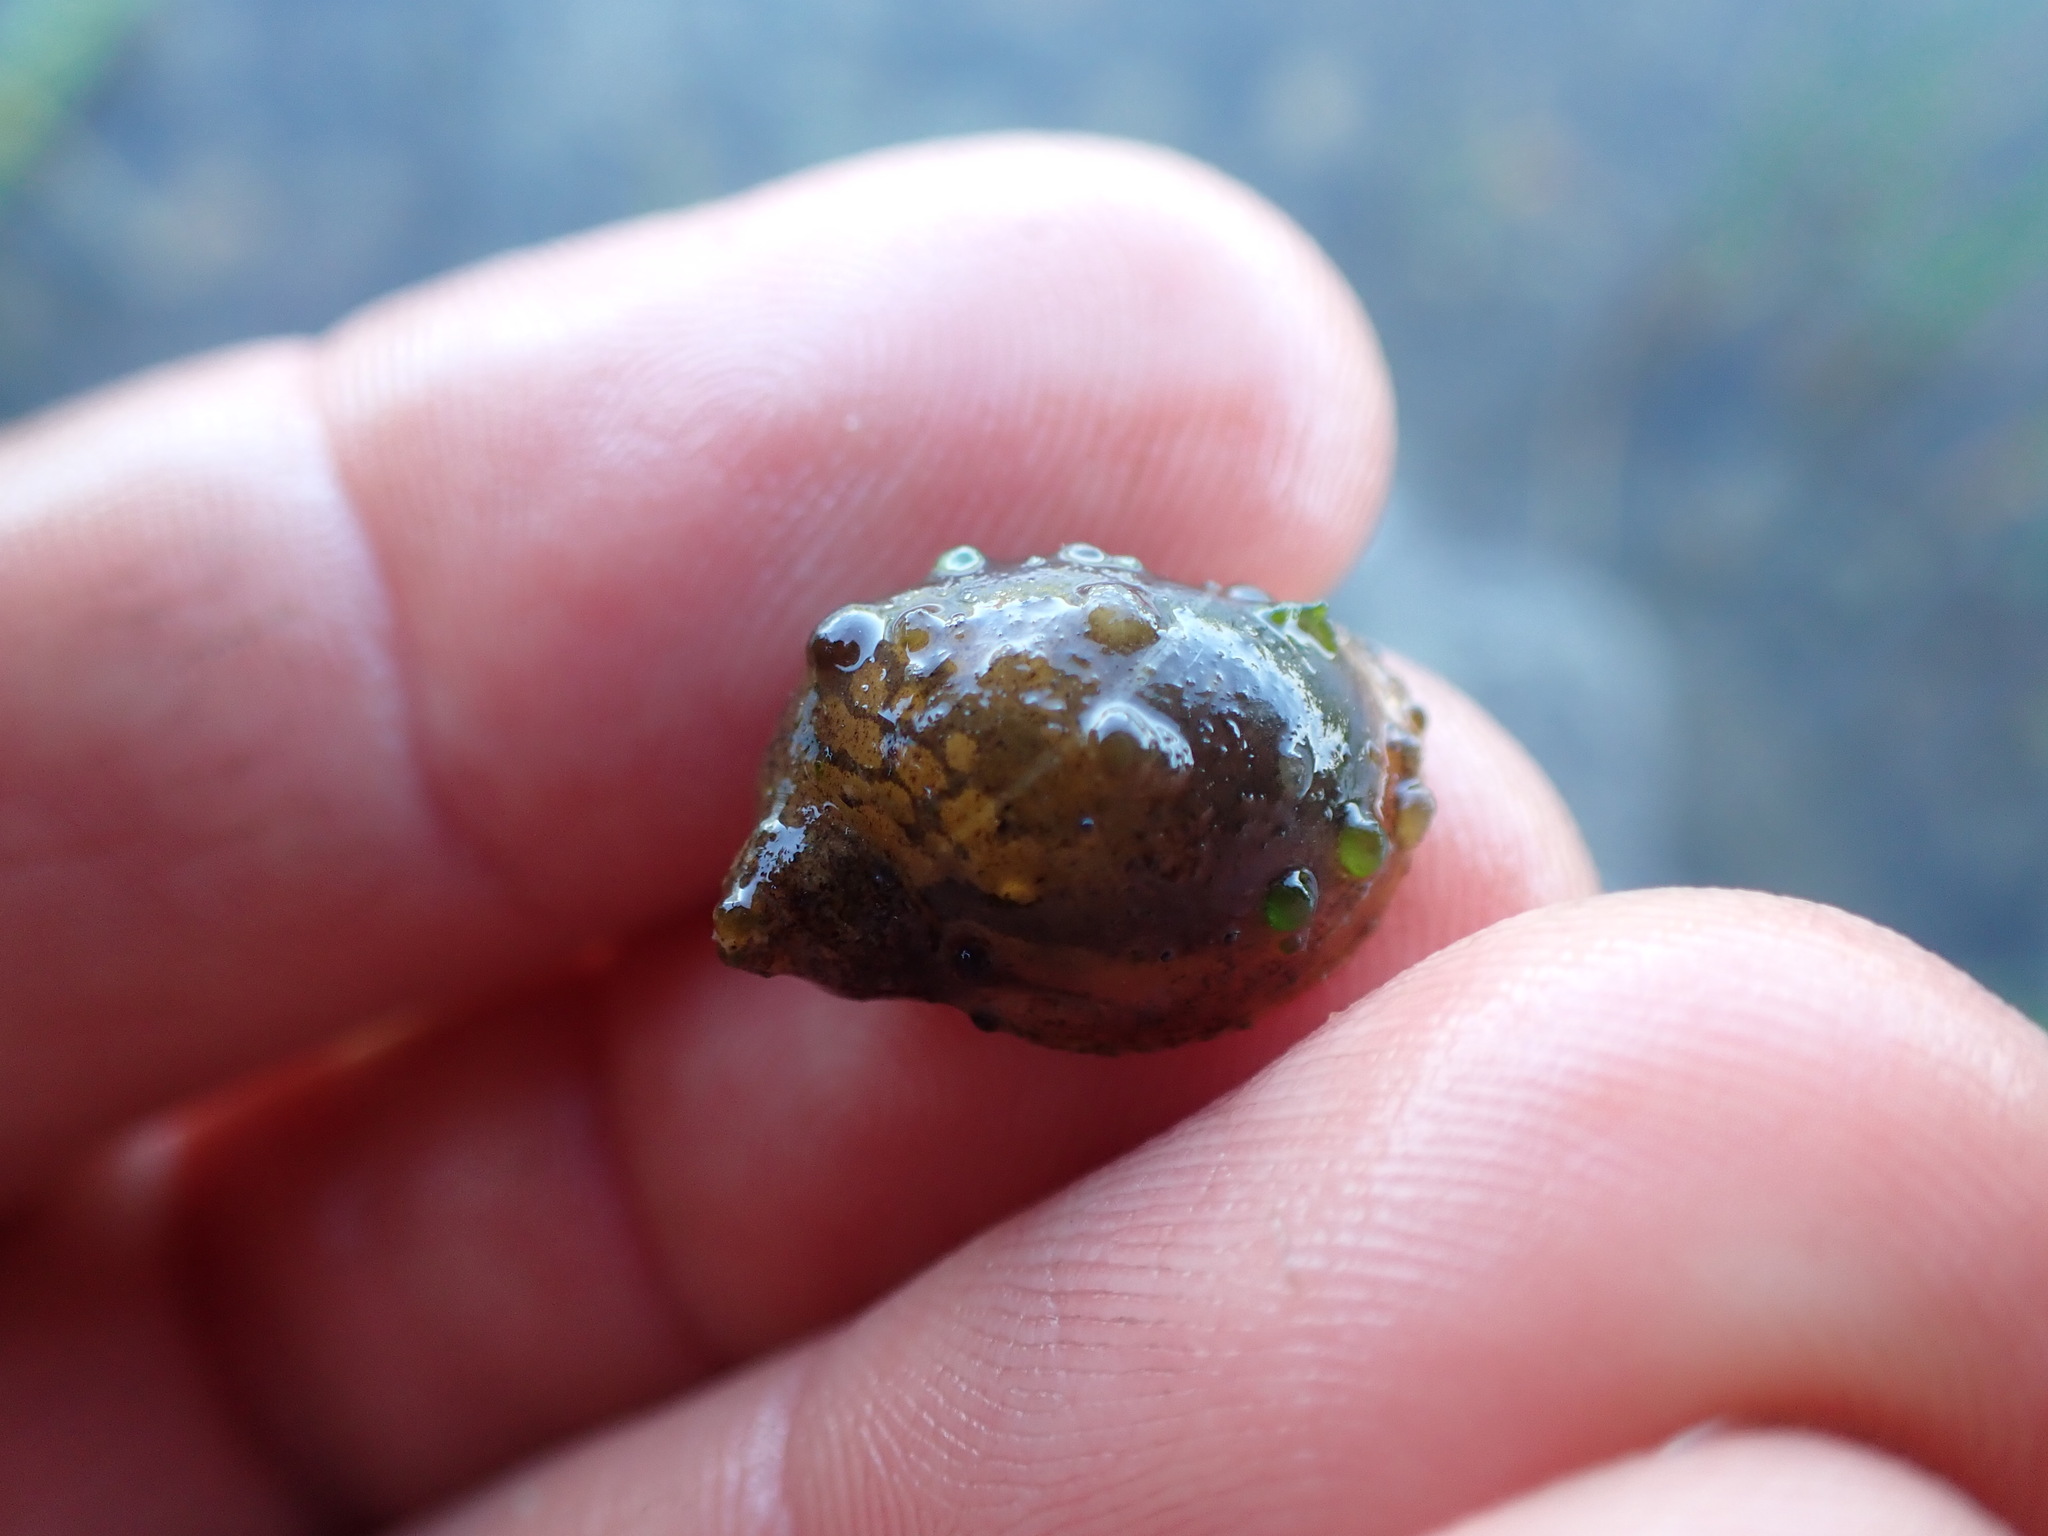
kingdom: Animalia
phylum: Mollusca
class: Gastropoda
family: Lymnaeidae
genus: Radix
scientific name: Radix auricularia
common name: Ear pond snail
